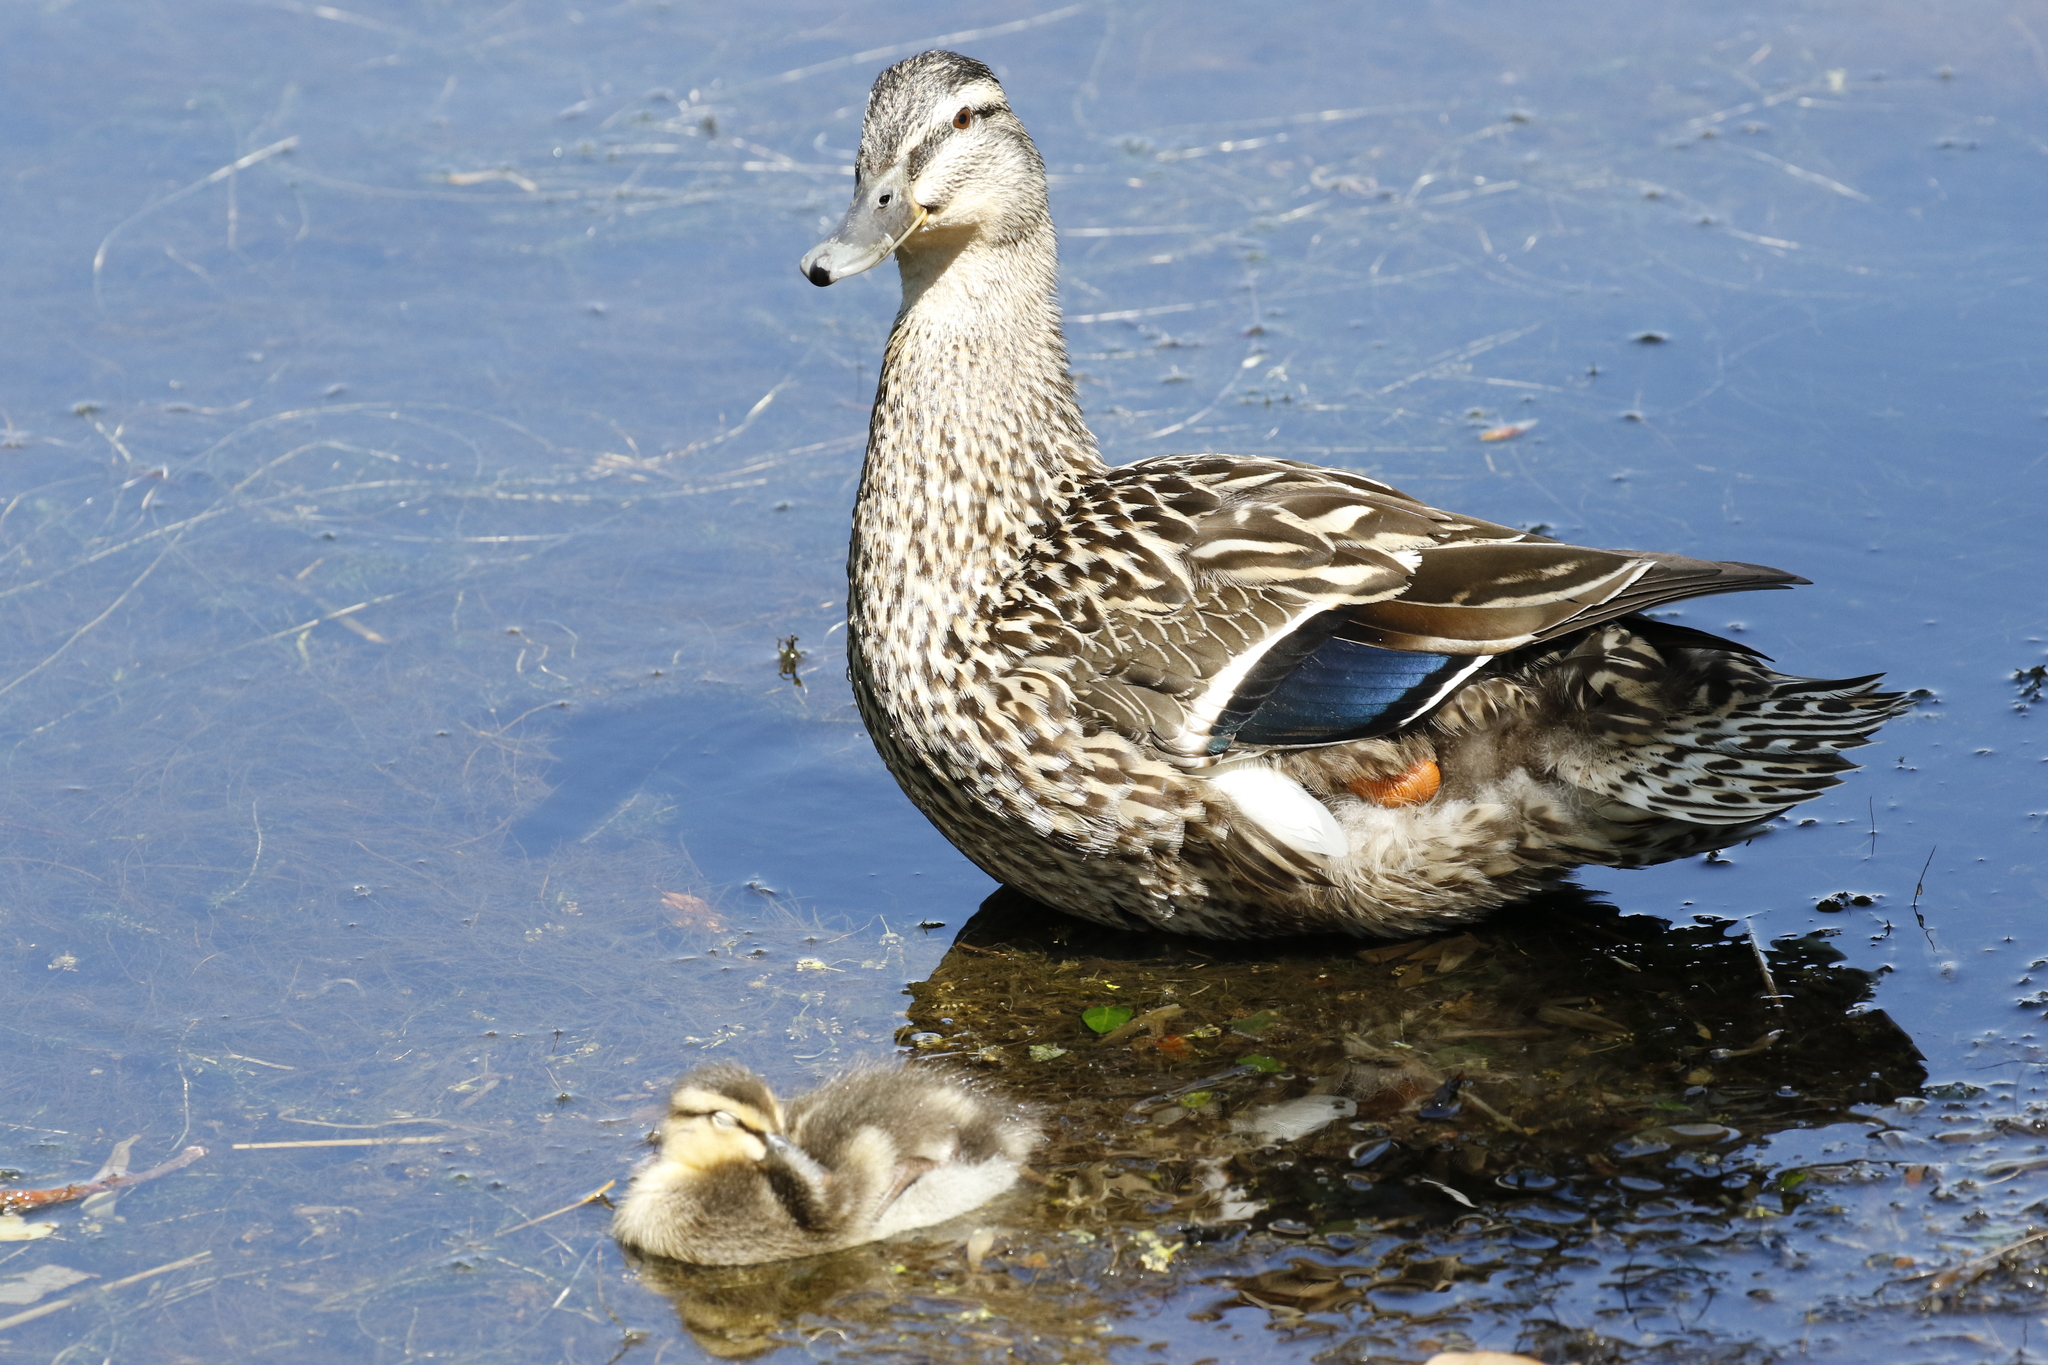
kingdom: Animalia
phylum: Chordata
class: Aves
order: Anseriformes
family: Anatidae
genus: Anas
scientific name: Anas platyrhynchos
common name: Mallard
